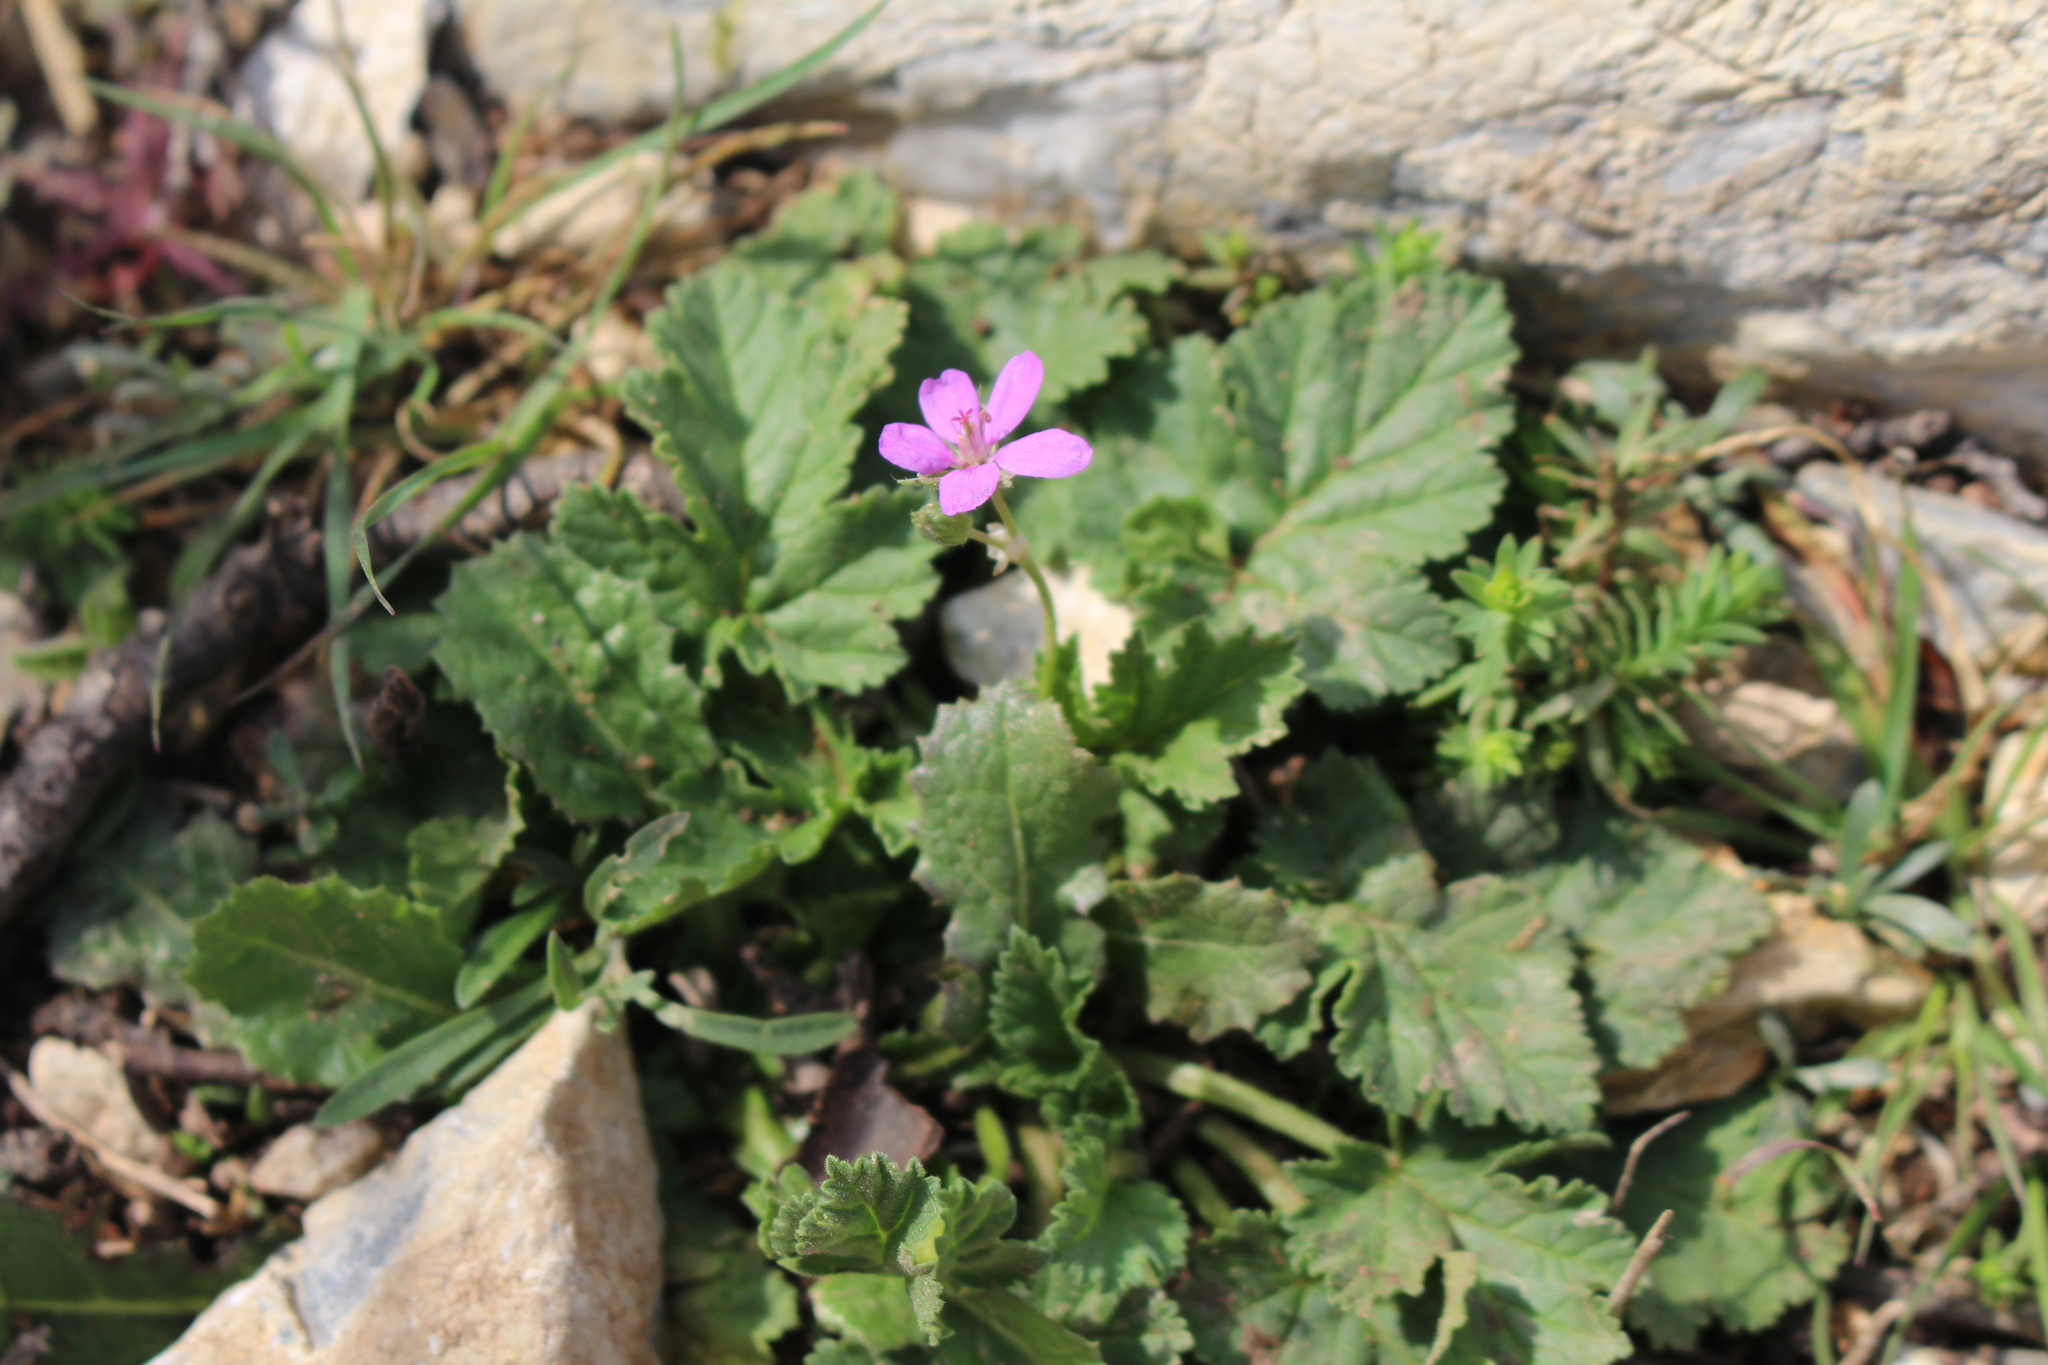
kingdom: Plantae
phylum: Tracheophyta
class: Magnoliopsida
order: Geraniales
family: Geraniaceae
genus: Erodium
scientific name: Erodium malacoides
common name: Soft stork's-bill
